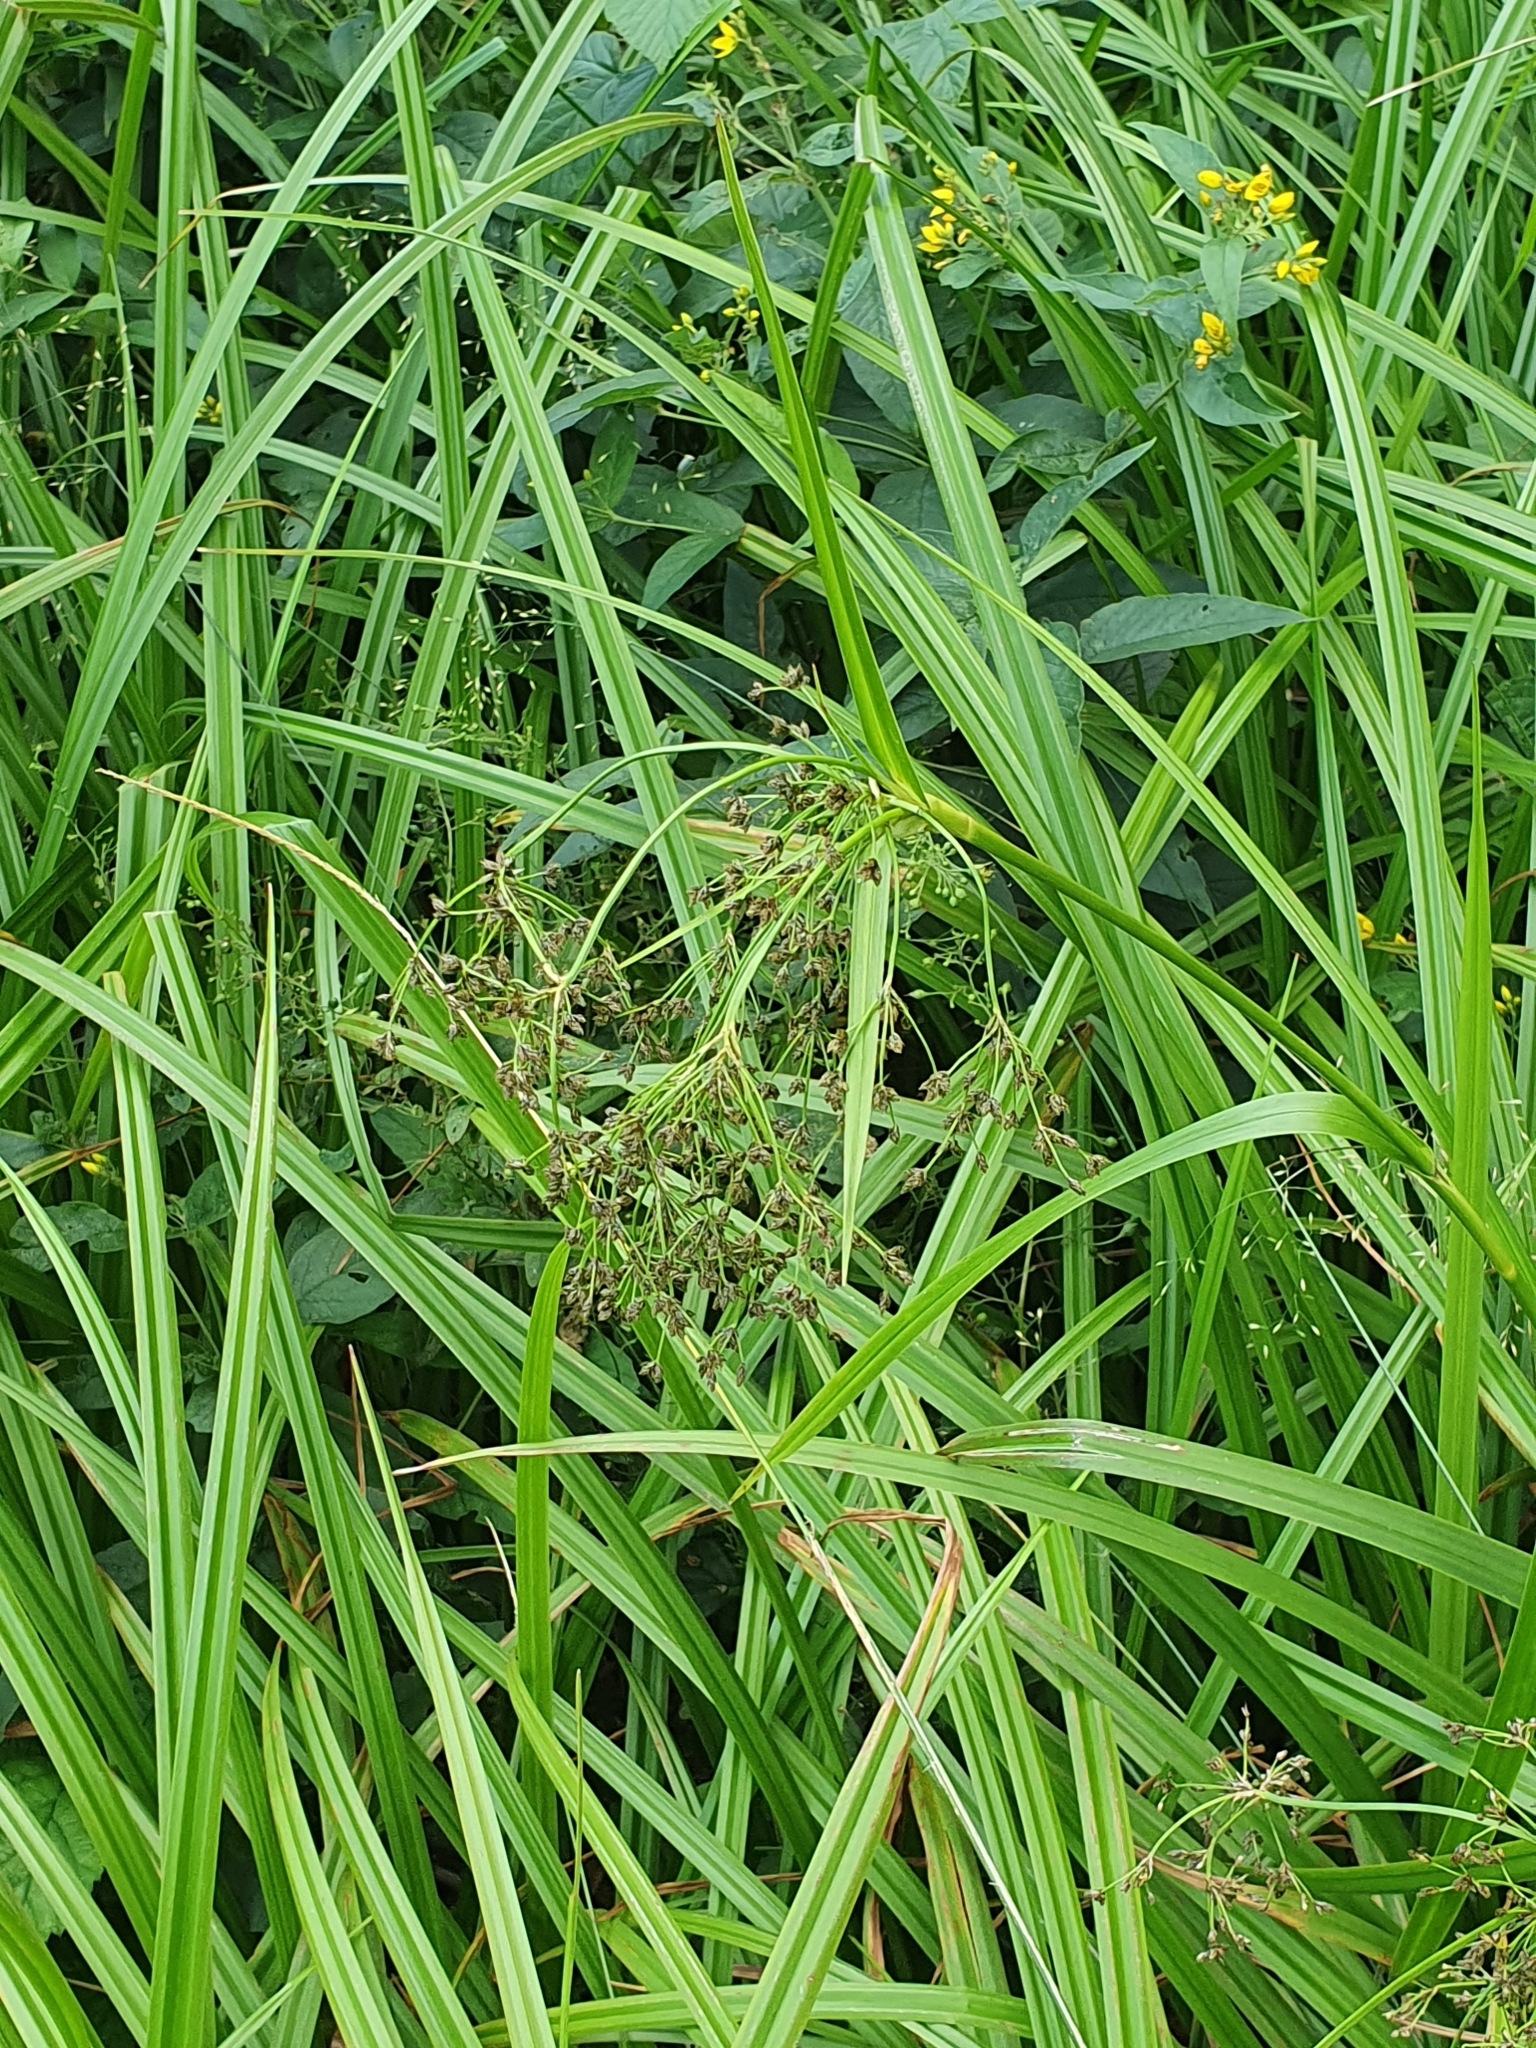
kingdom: Plantae
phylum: Tracheophyta
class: Liliopsida
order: Poales
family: Cyperaceae
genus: Scirpus
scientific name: Scirpus sylvaticus
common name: Wood club-rush
